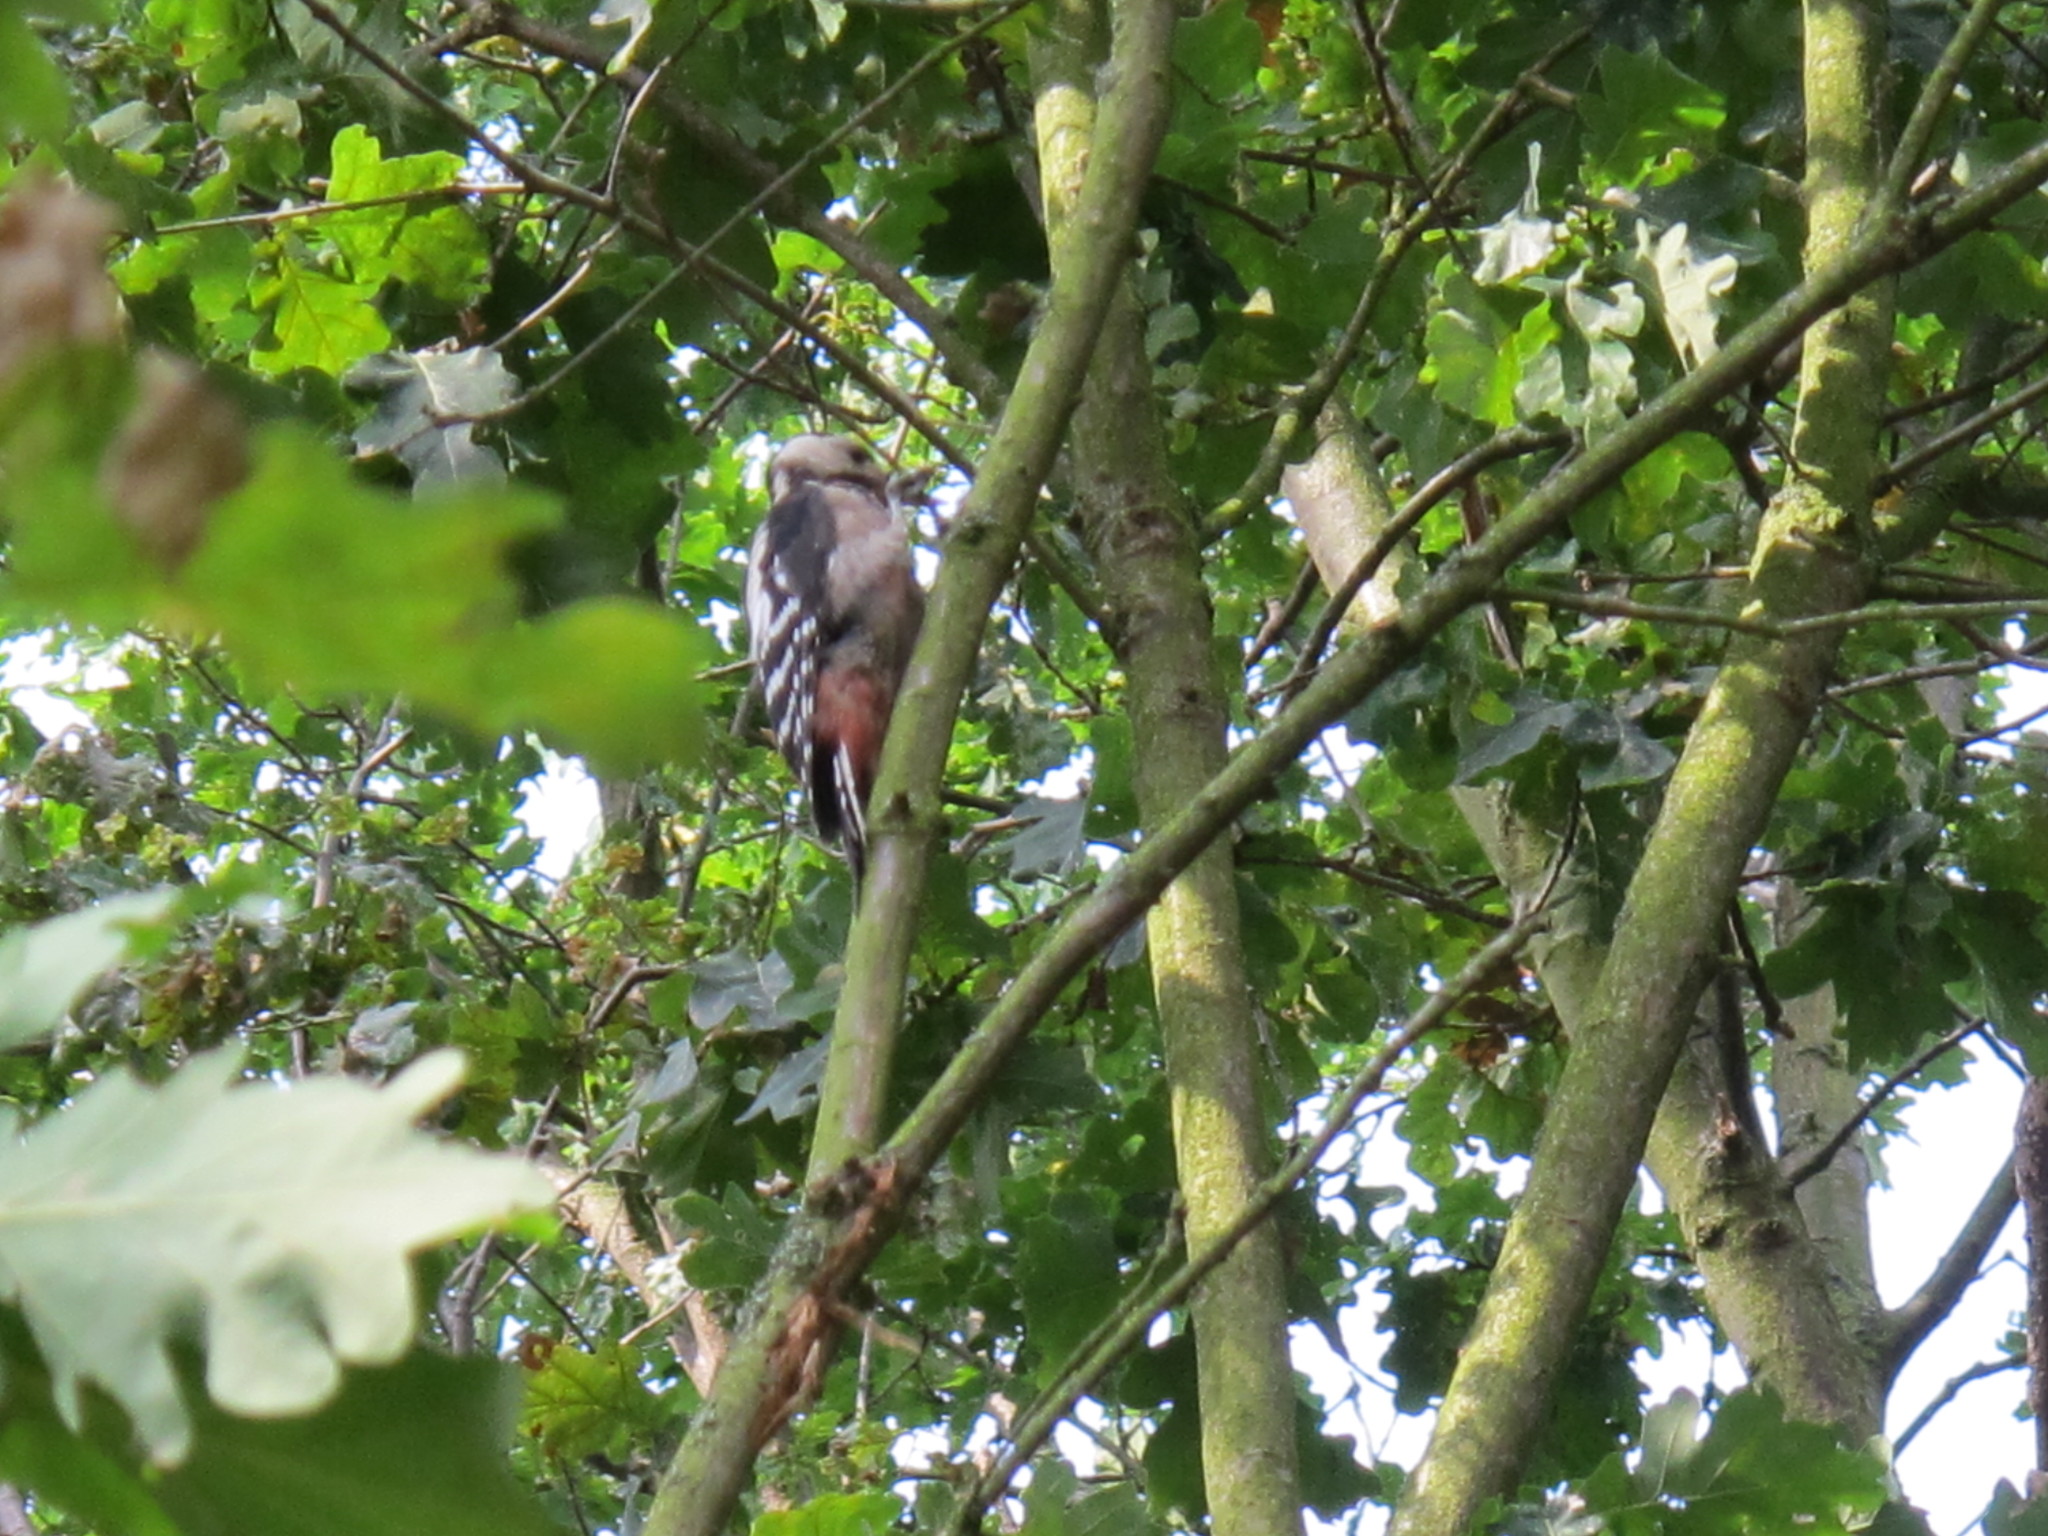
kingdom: Animalia
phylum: Chordata
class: Aves
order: Piciformes
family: Picidae
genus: Dendrocopos
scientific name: Dendrocopos major
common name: Great spotted woodpecker
